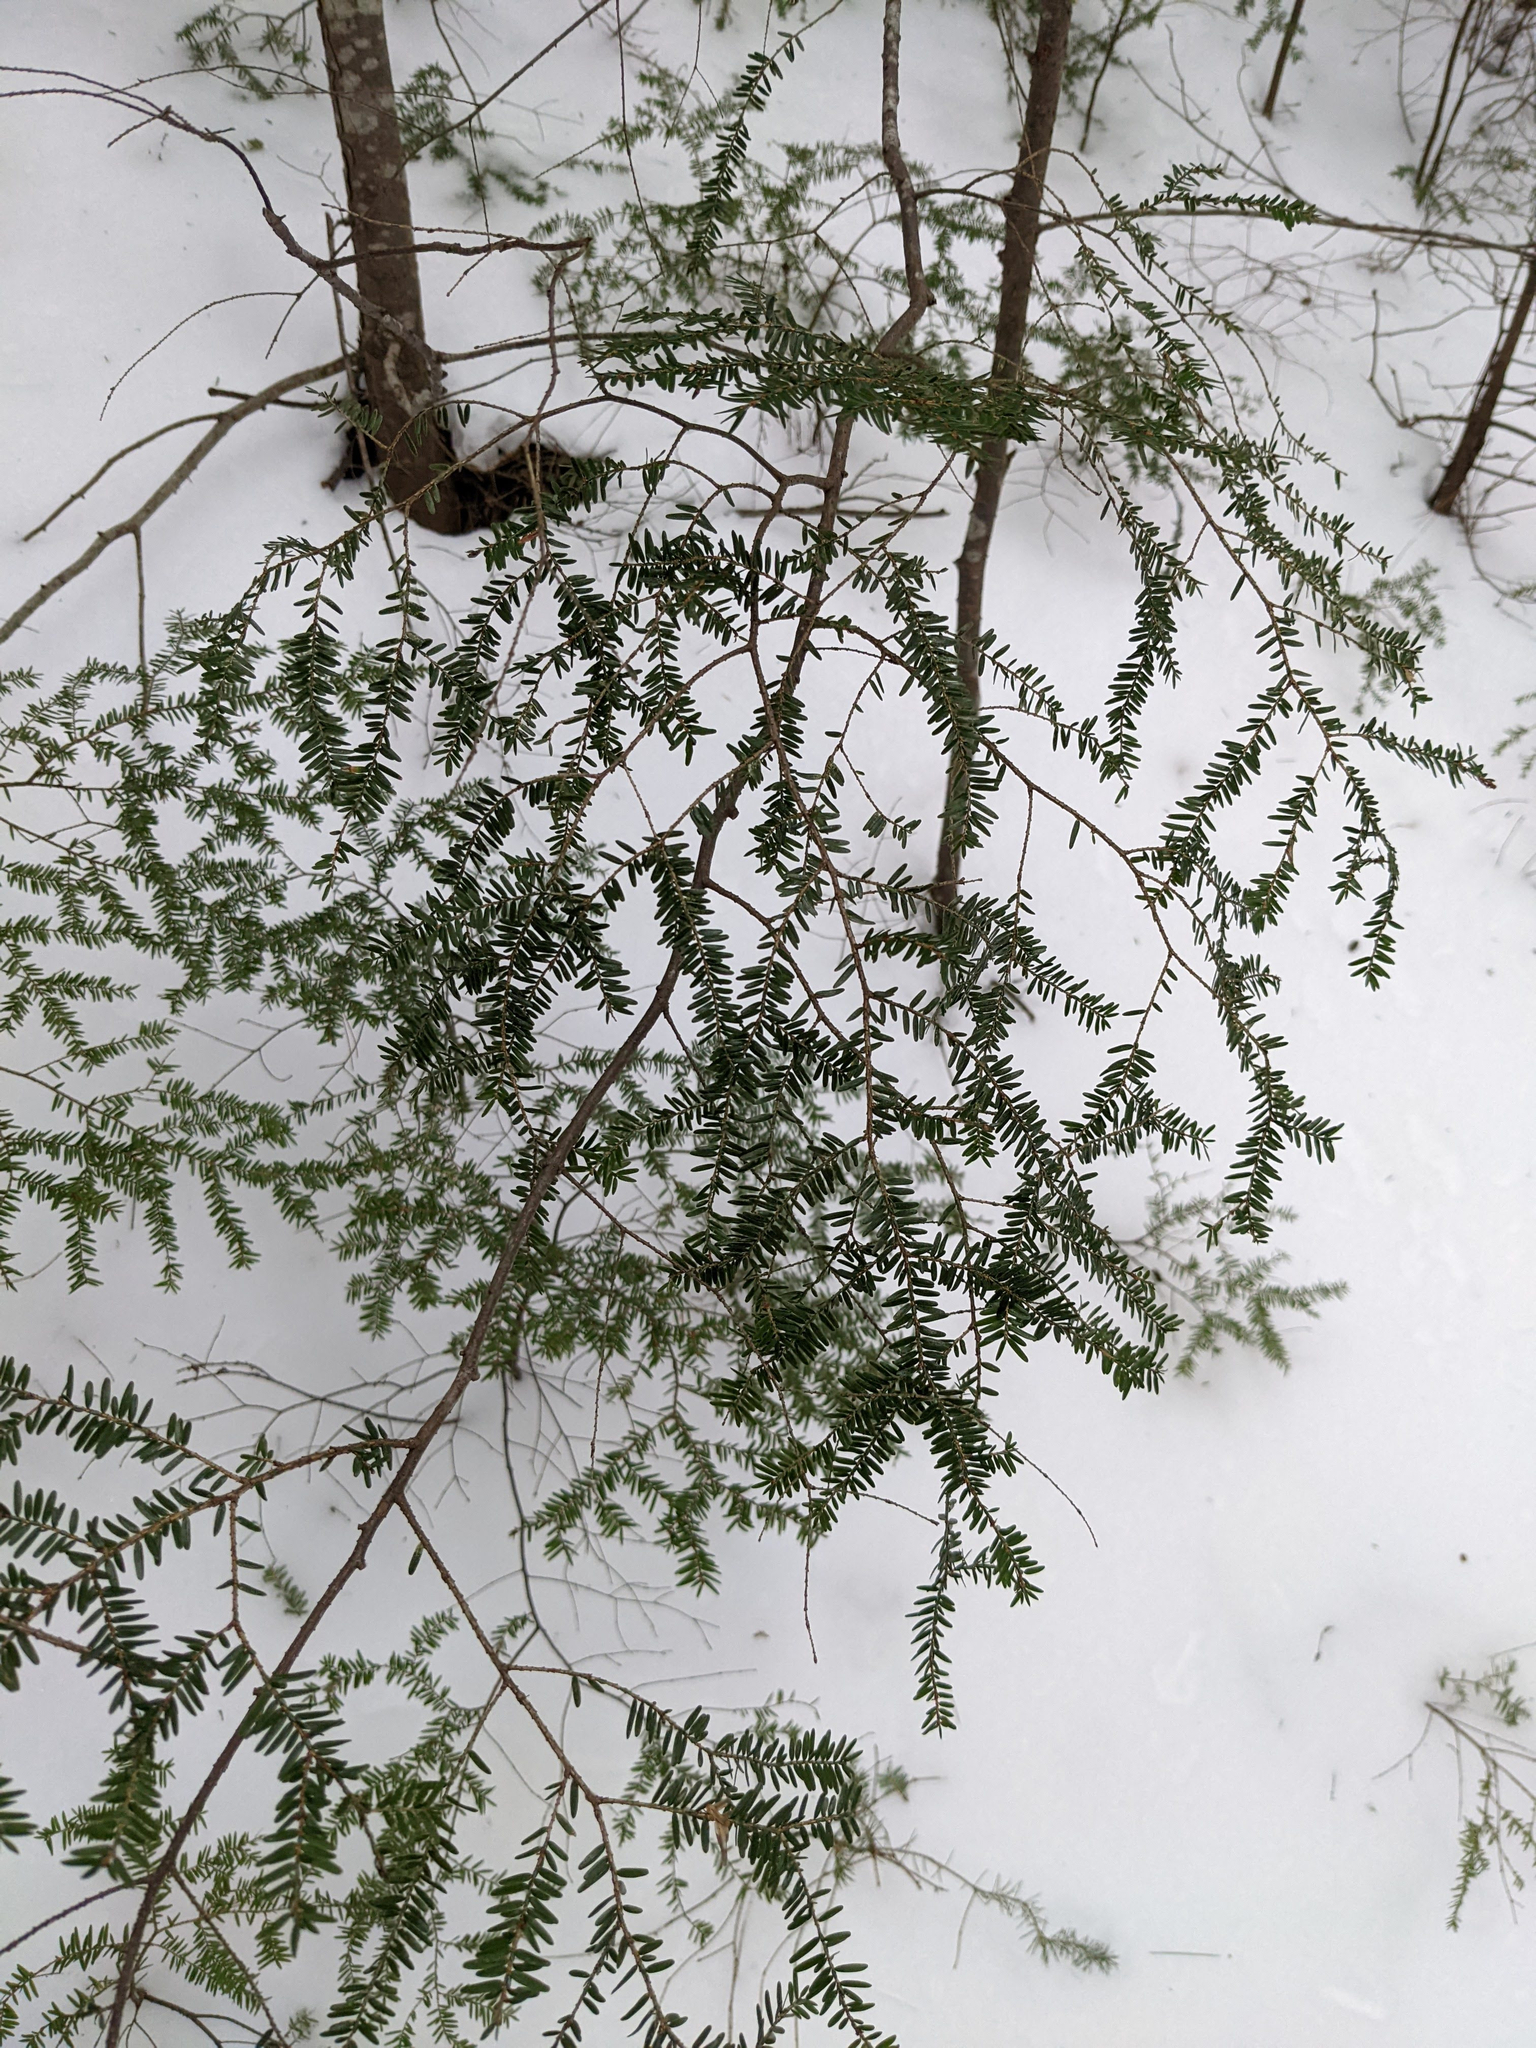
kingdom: Plantae
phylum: Tracheophyta
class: Pinopsida
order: Pinales
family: Pinaceae
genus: Tsuga
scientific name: Tsuga canadensis
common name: Eastern hemlock
